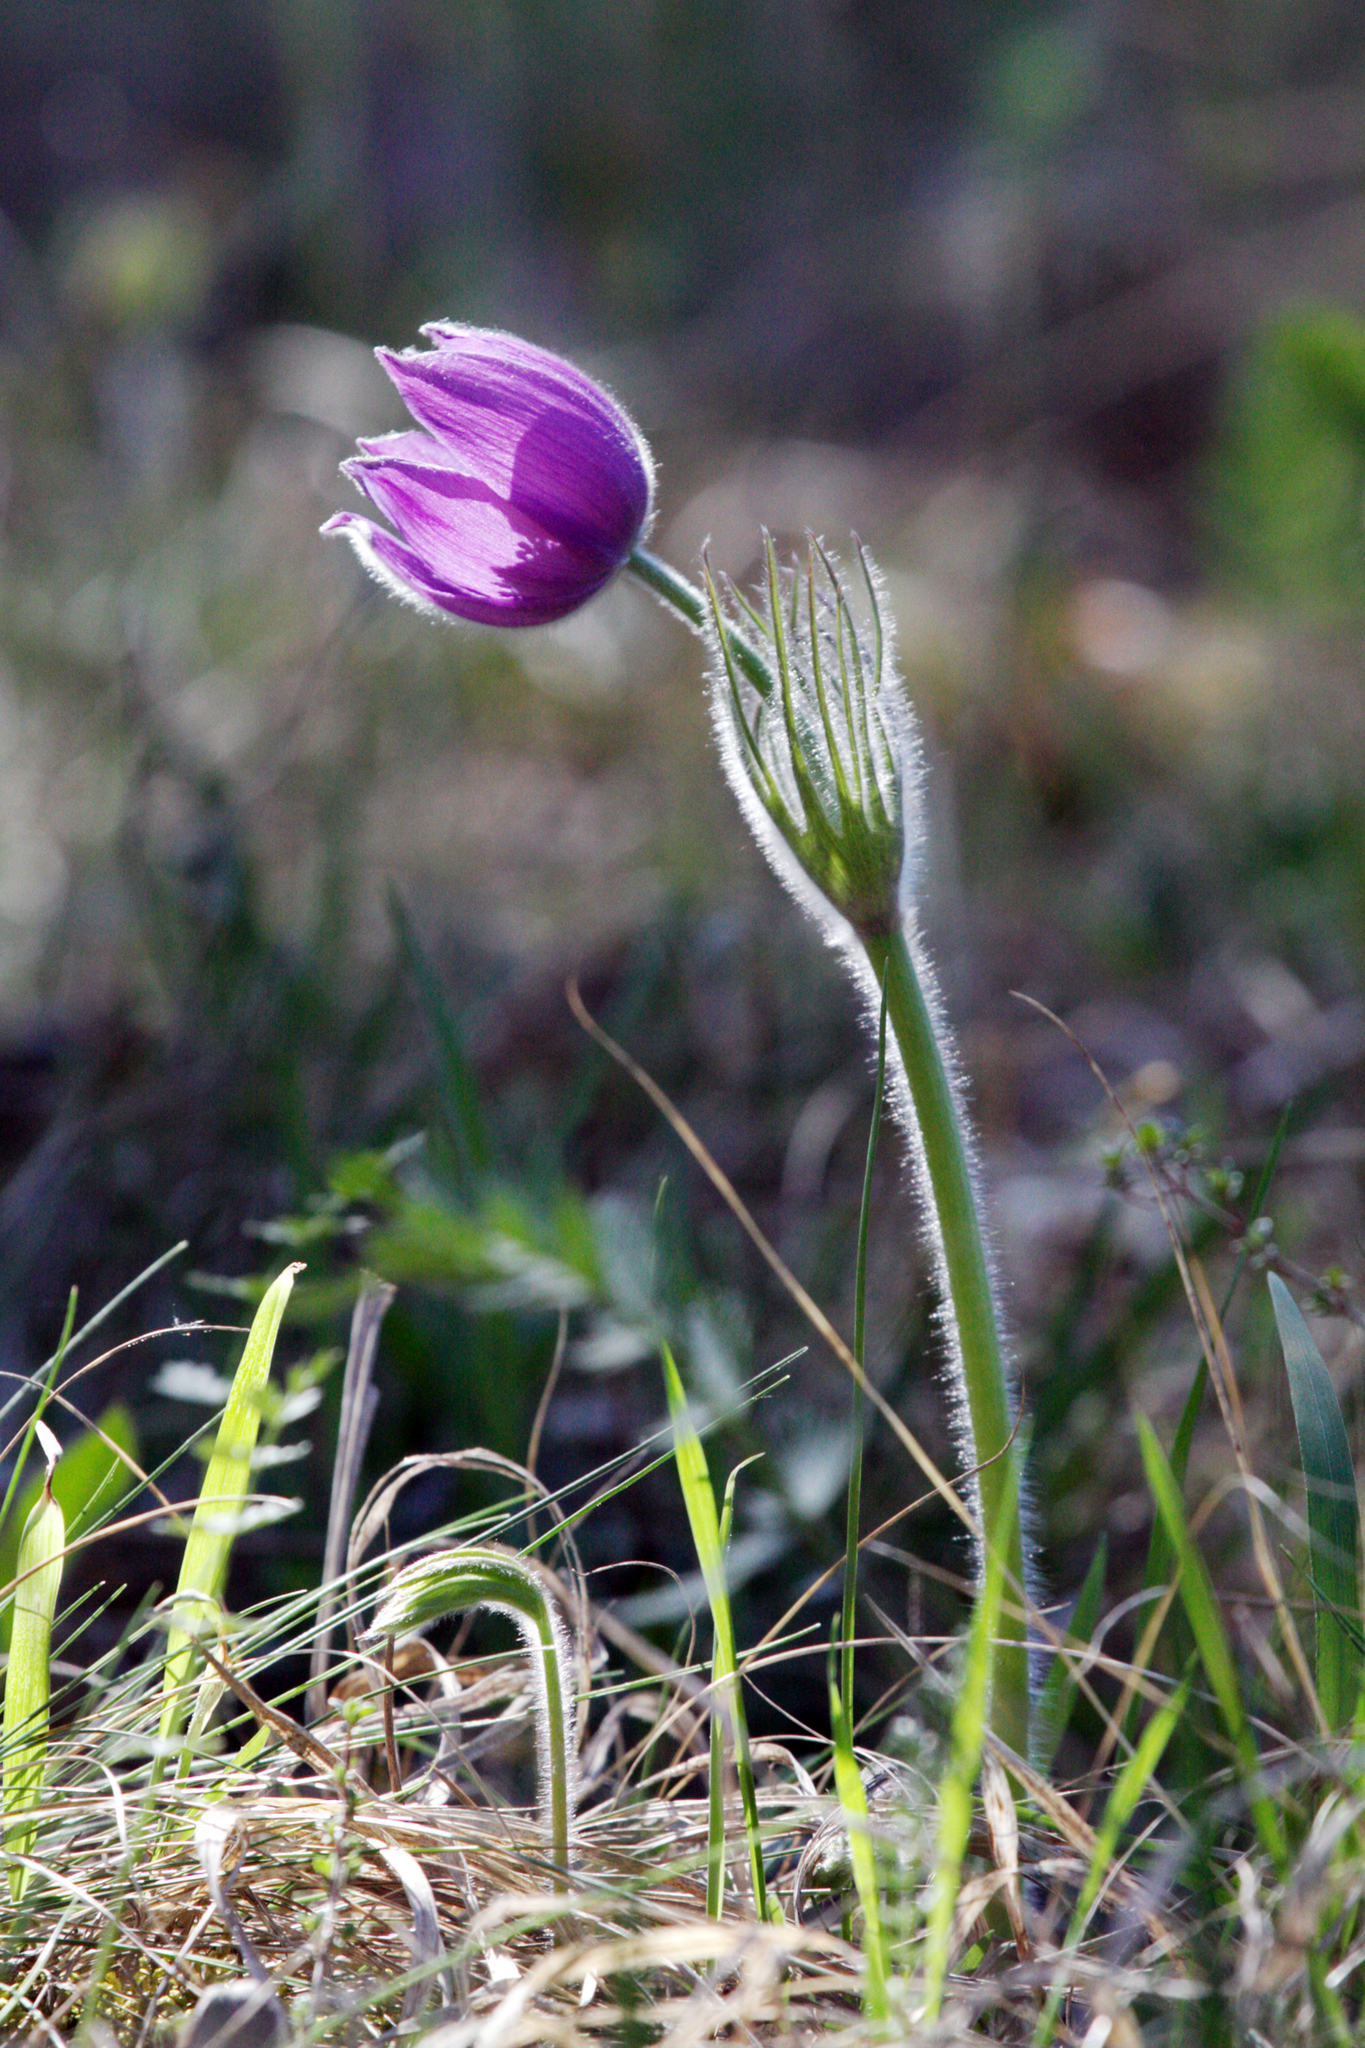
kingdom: Plantae
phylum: Tracheophyta
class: Magnoliopsida
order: Ranunculales
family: Ranunculaceae
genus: Pulsatilla
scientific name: Pulsatilla patens
